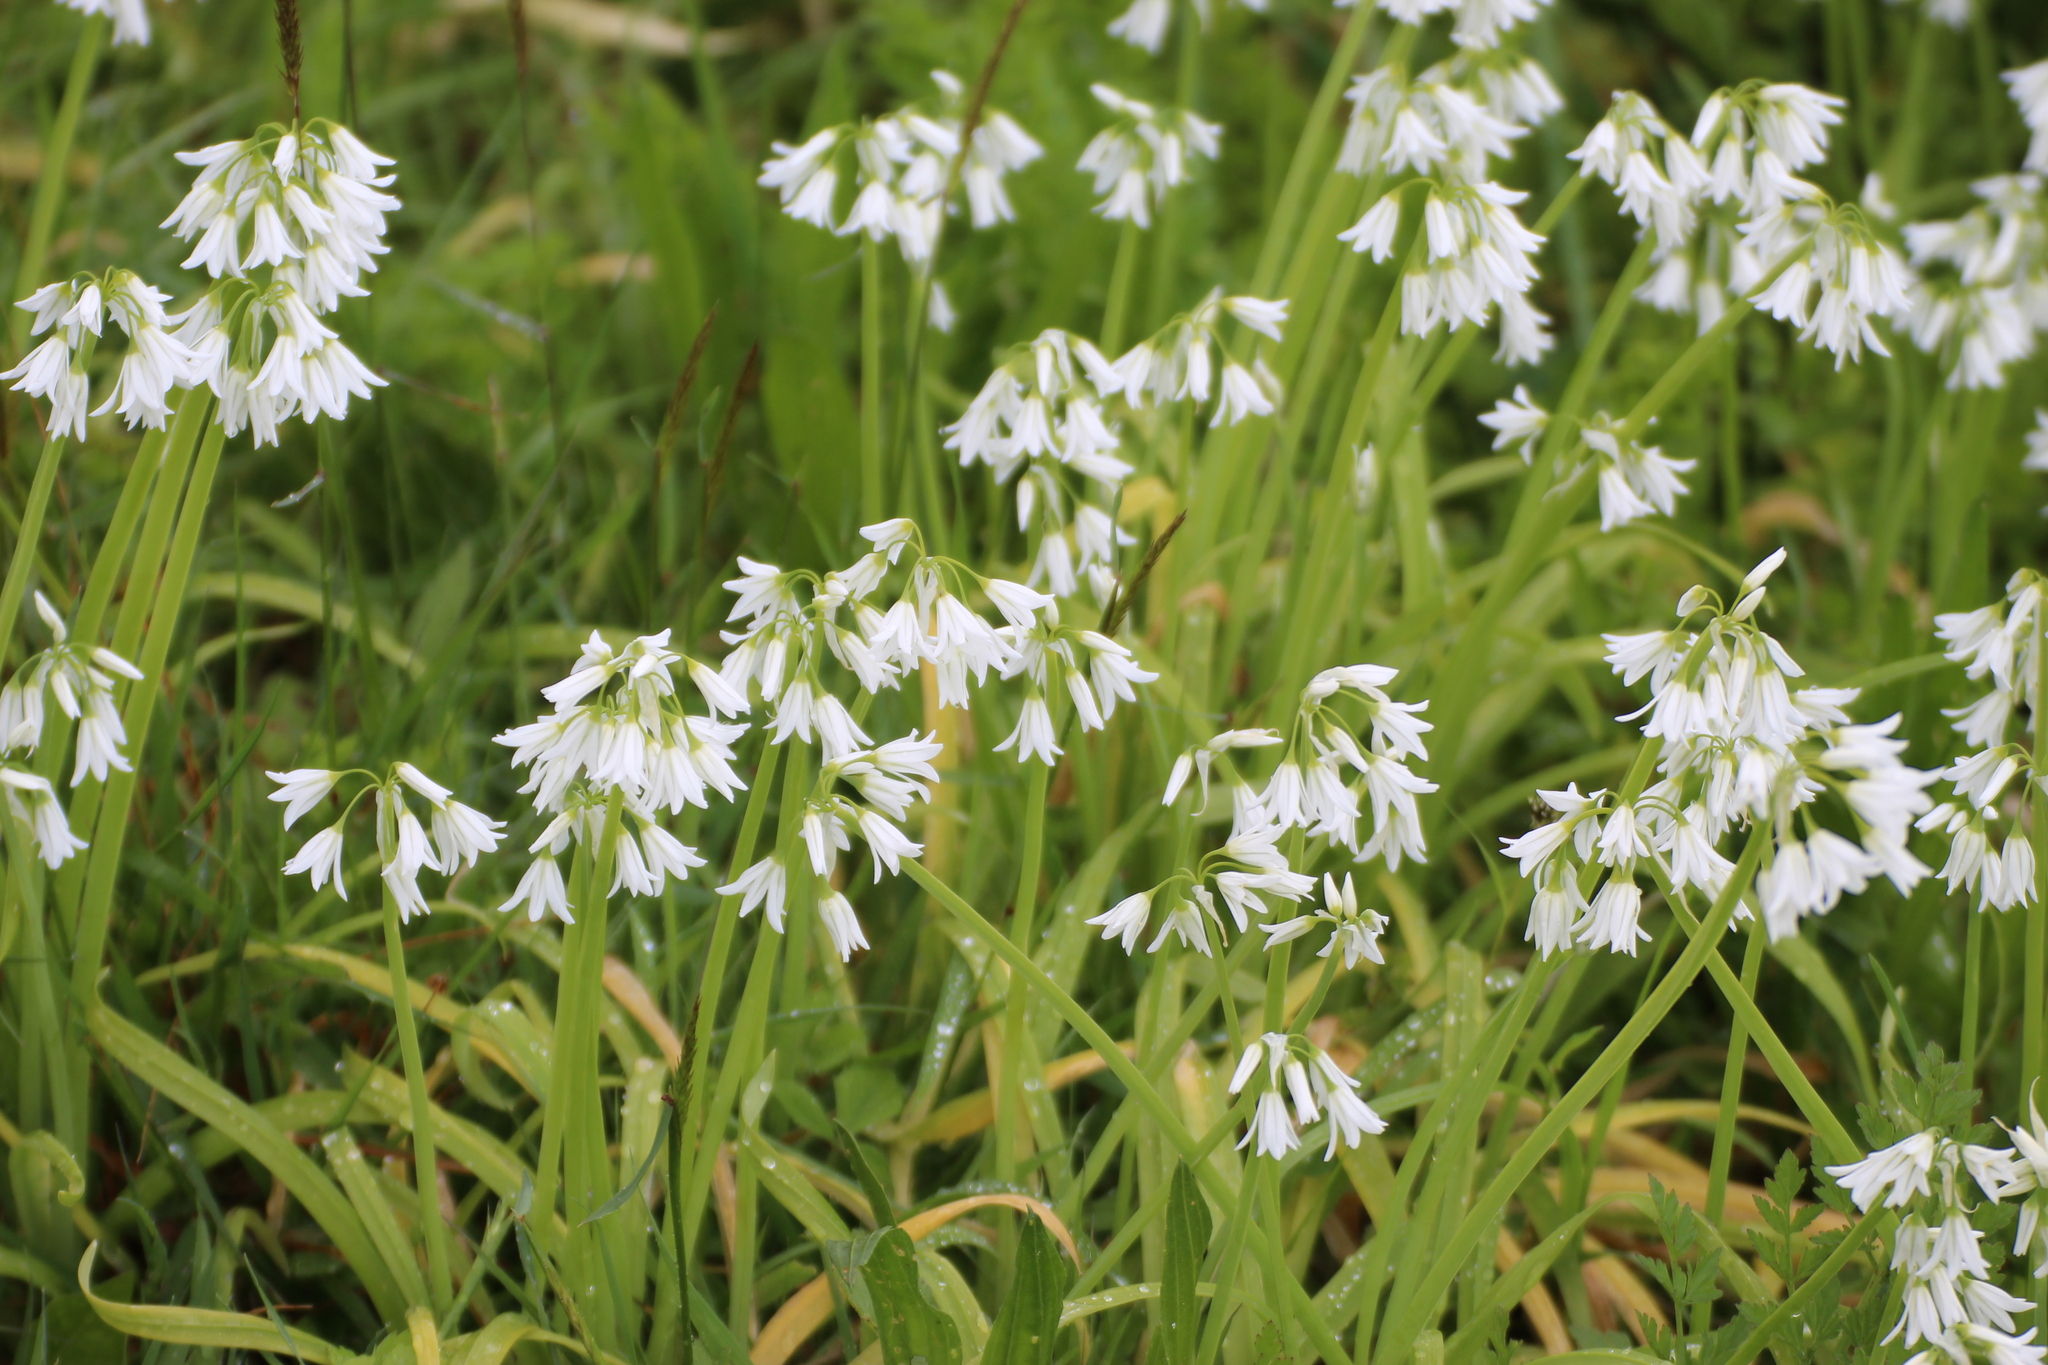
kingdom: Plantae
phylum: Tracheophyta
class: Liliopsida
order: Asparagales
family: Amaryllidaceae
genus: Allium
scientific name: Allium triquetrum
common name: Three-cornered garlic
